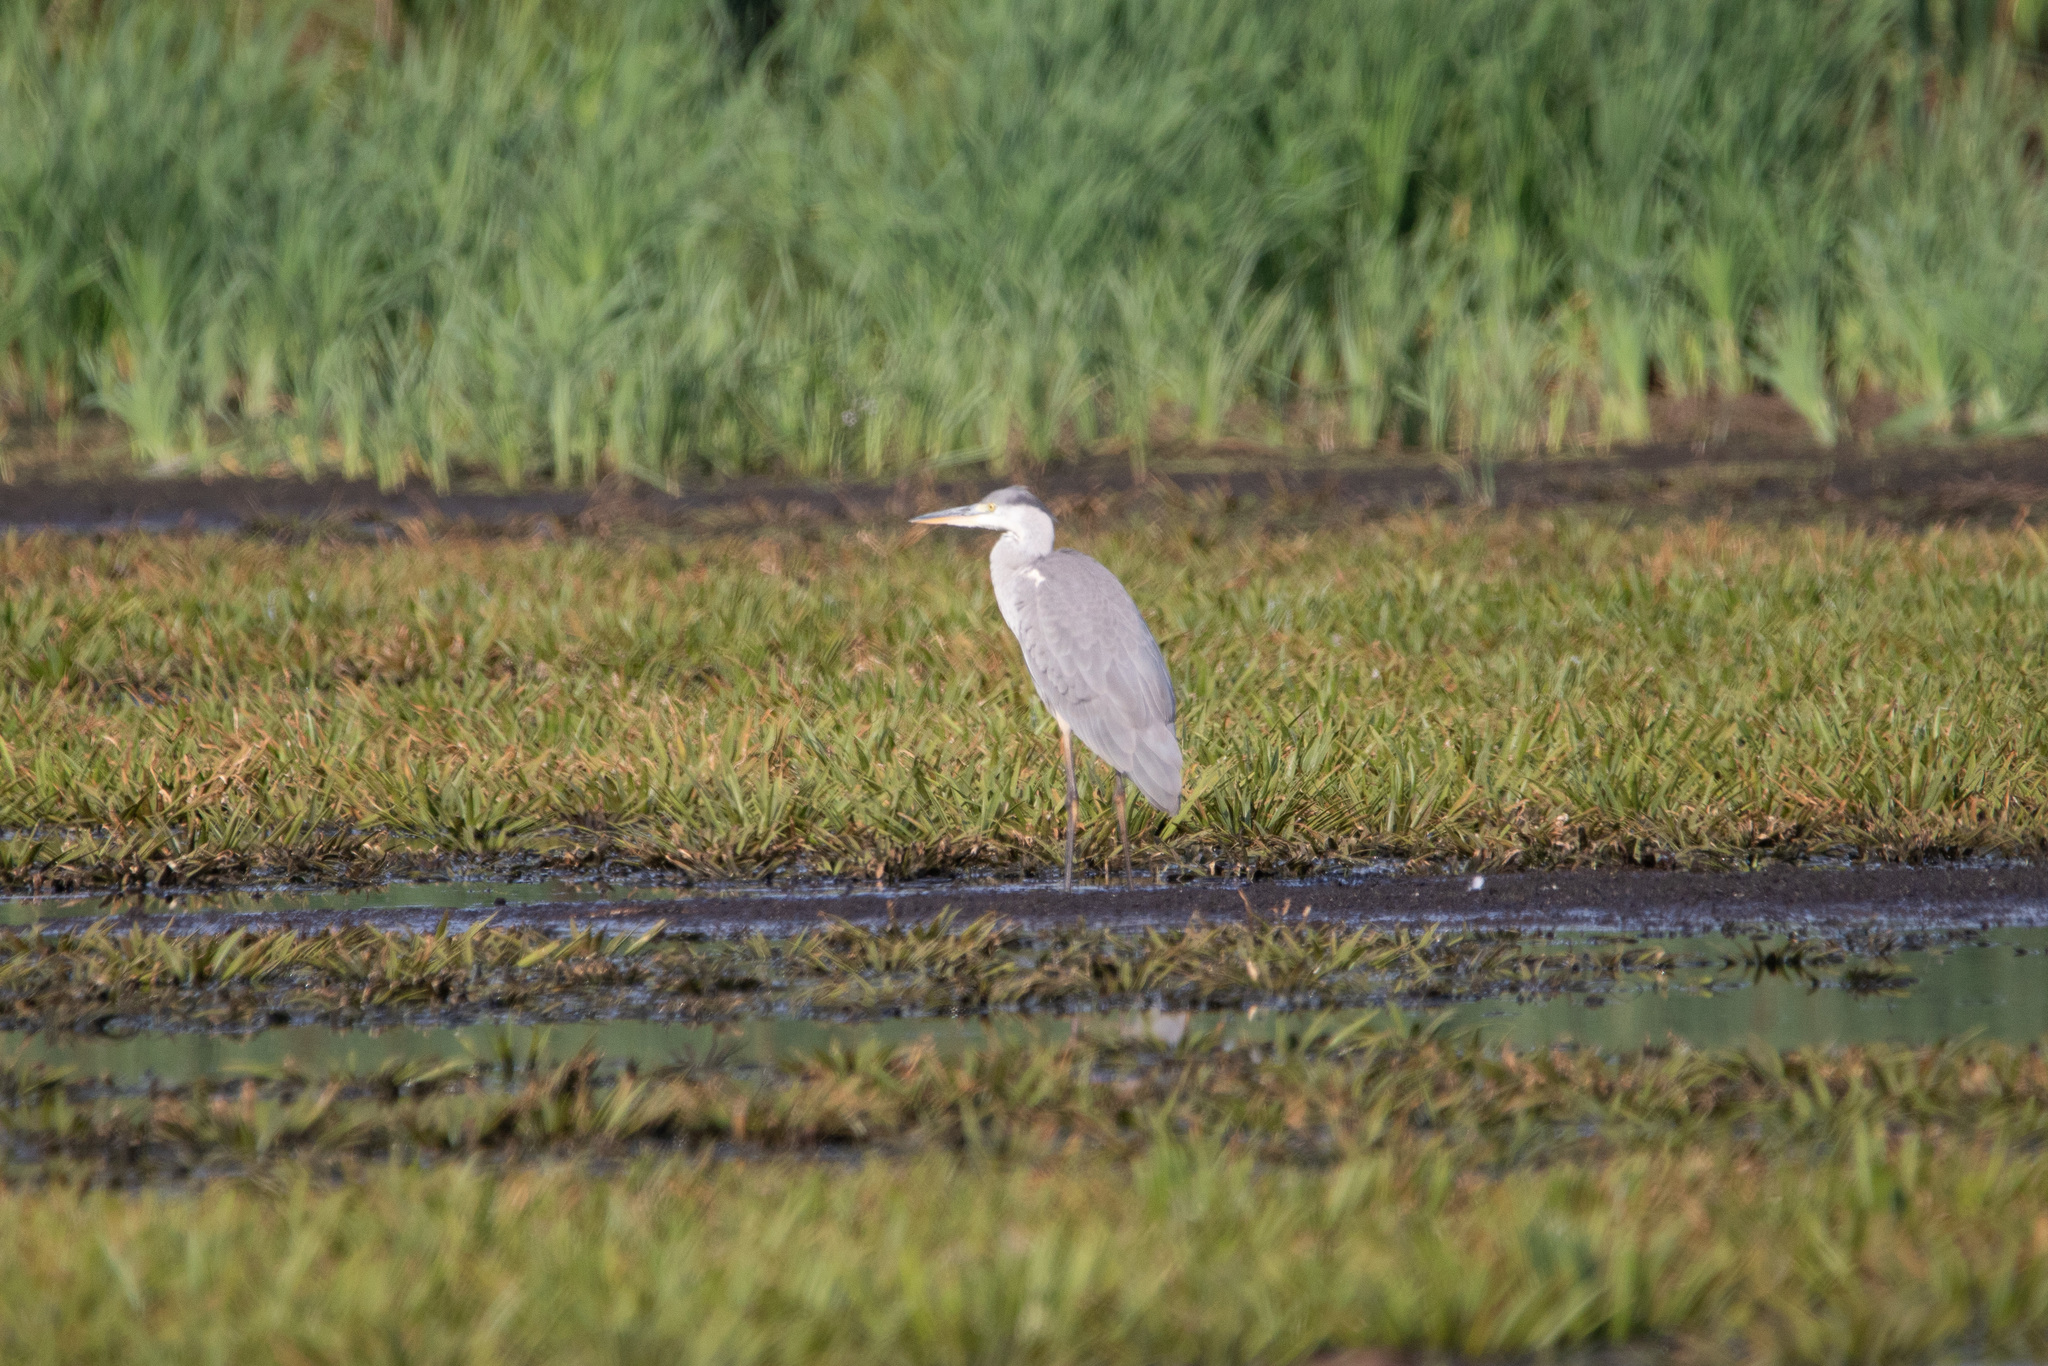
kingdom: Animalia
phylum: Chordata
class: Aves
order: Pelecaniformes
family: Ardeidae
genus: Ardea
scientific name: Ardea cinerea
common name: Grey heron
